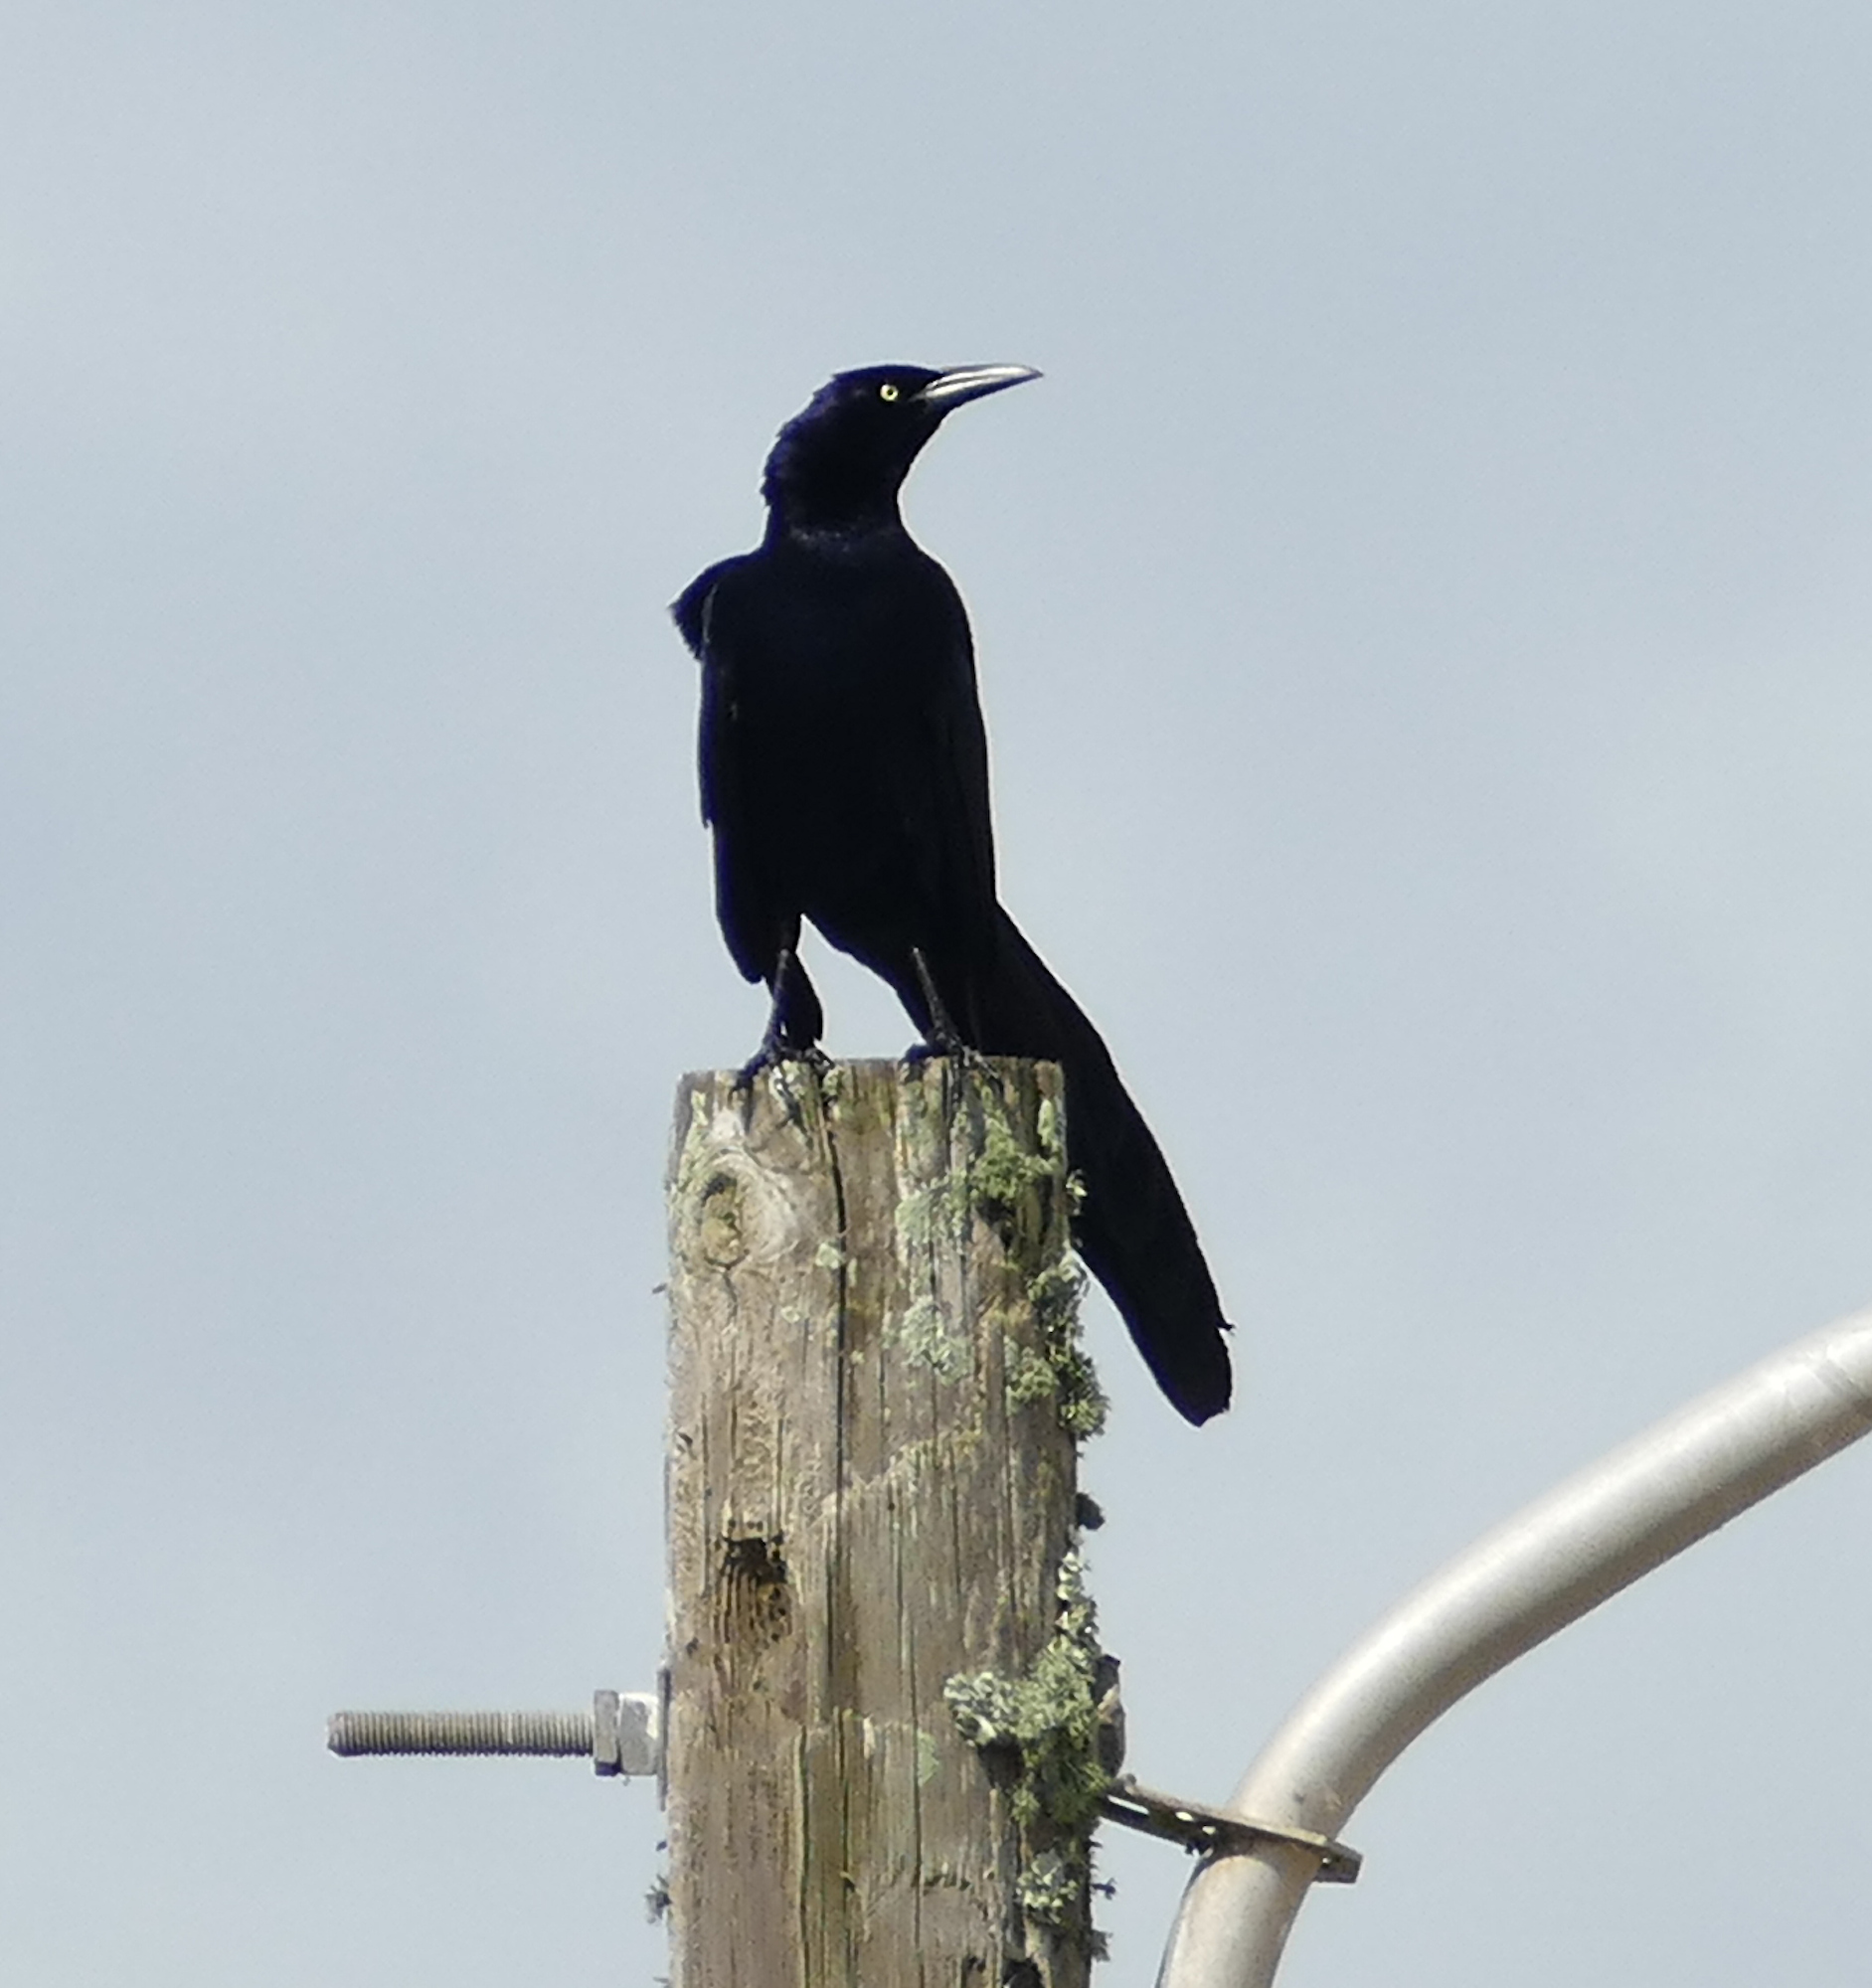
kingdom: Animalia
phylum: Chordata
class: Aves
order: Passeriformes
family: Icteridae
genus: Quiscalus
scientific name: Quiscalus mexicanus
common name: Great-tailed grackle
